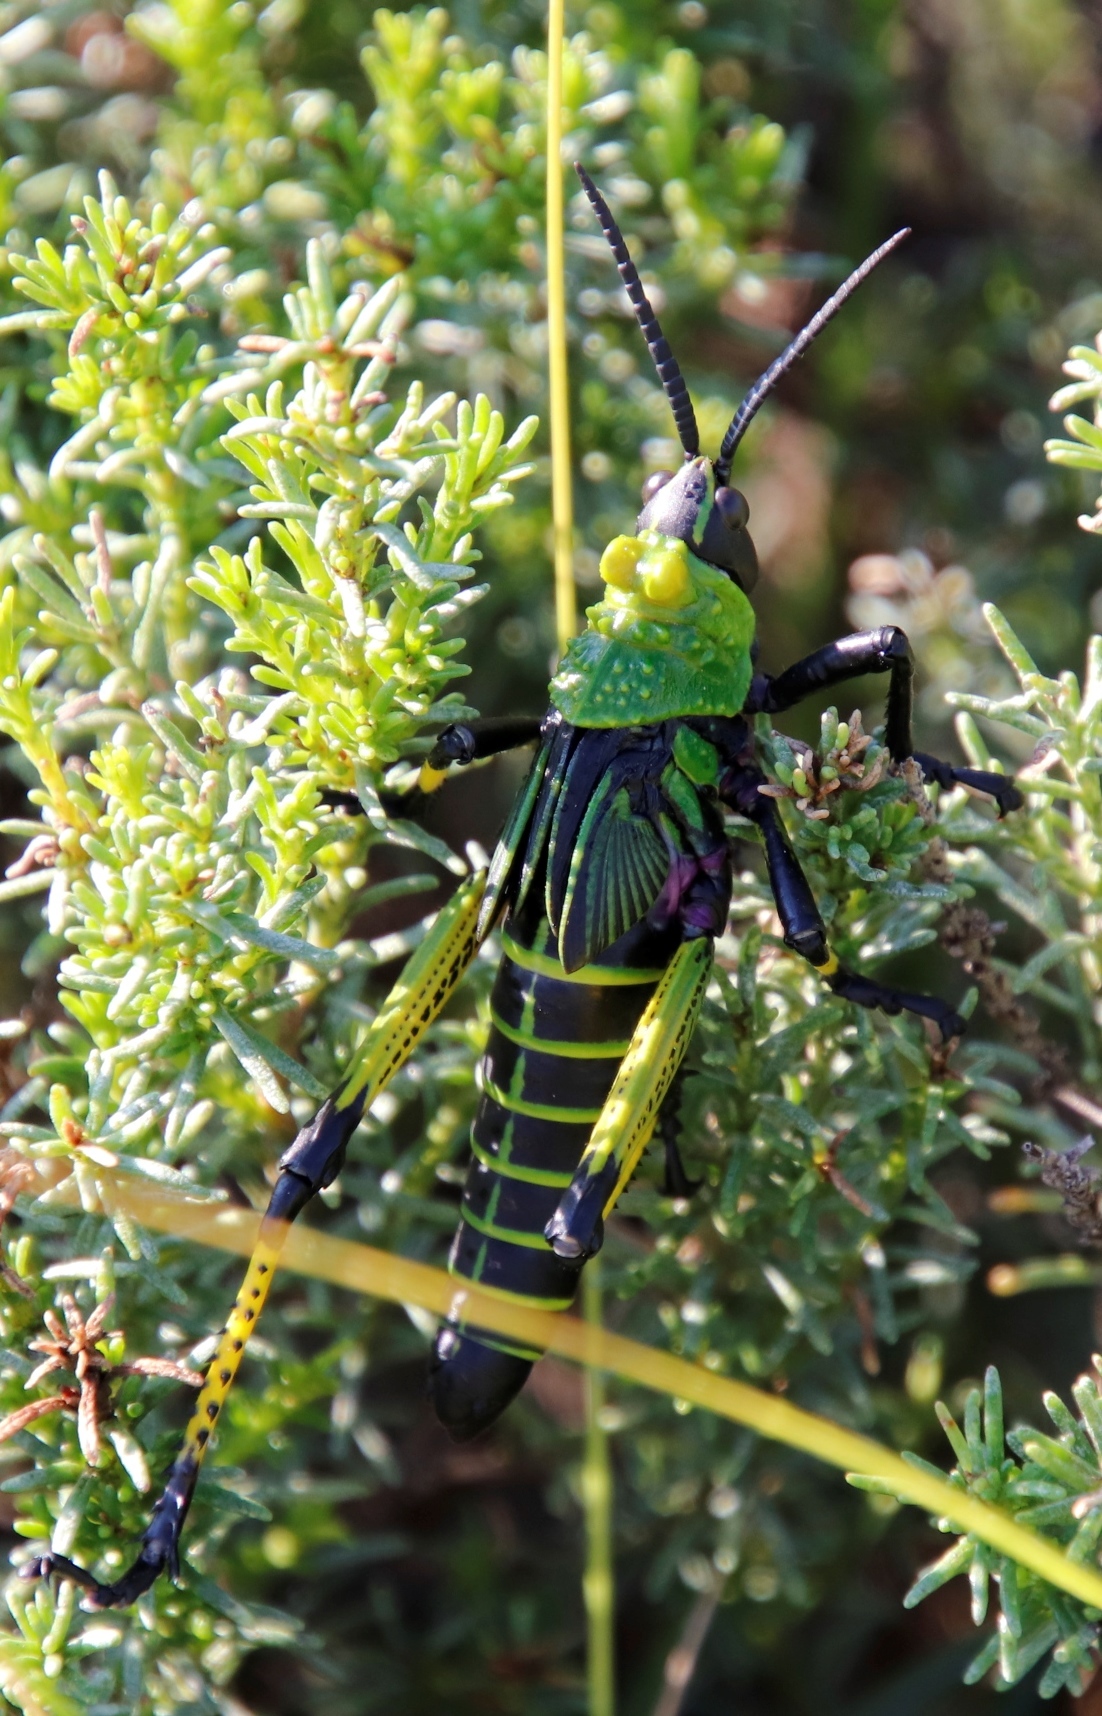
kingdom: Animalia
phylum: Arthropoda
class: Insecta
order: Orthoptera
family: Pyrgomorphidae
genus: Phymateus
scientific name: Phymateus leprosus
